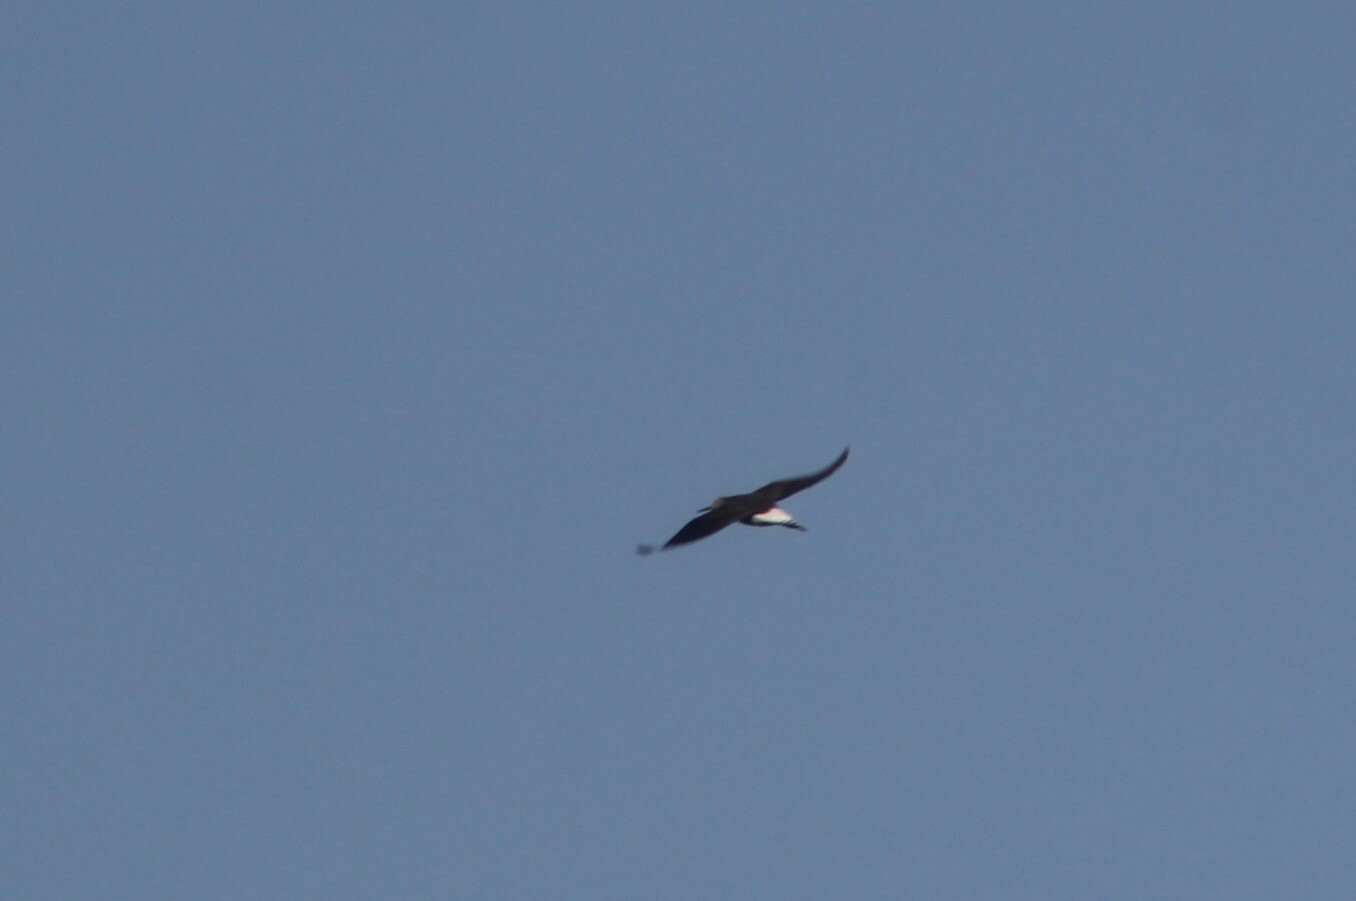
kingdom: Animalia
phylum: Chordata
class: Aves
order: Charadriiformes
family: Scolopacidae
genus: Tringa
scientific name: Tringa ochropus
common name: Green sandpiper
